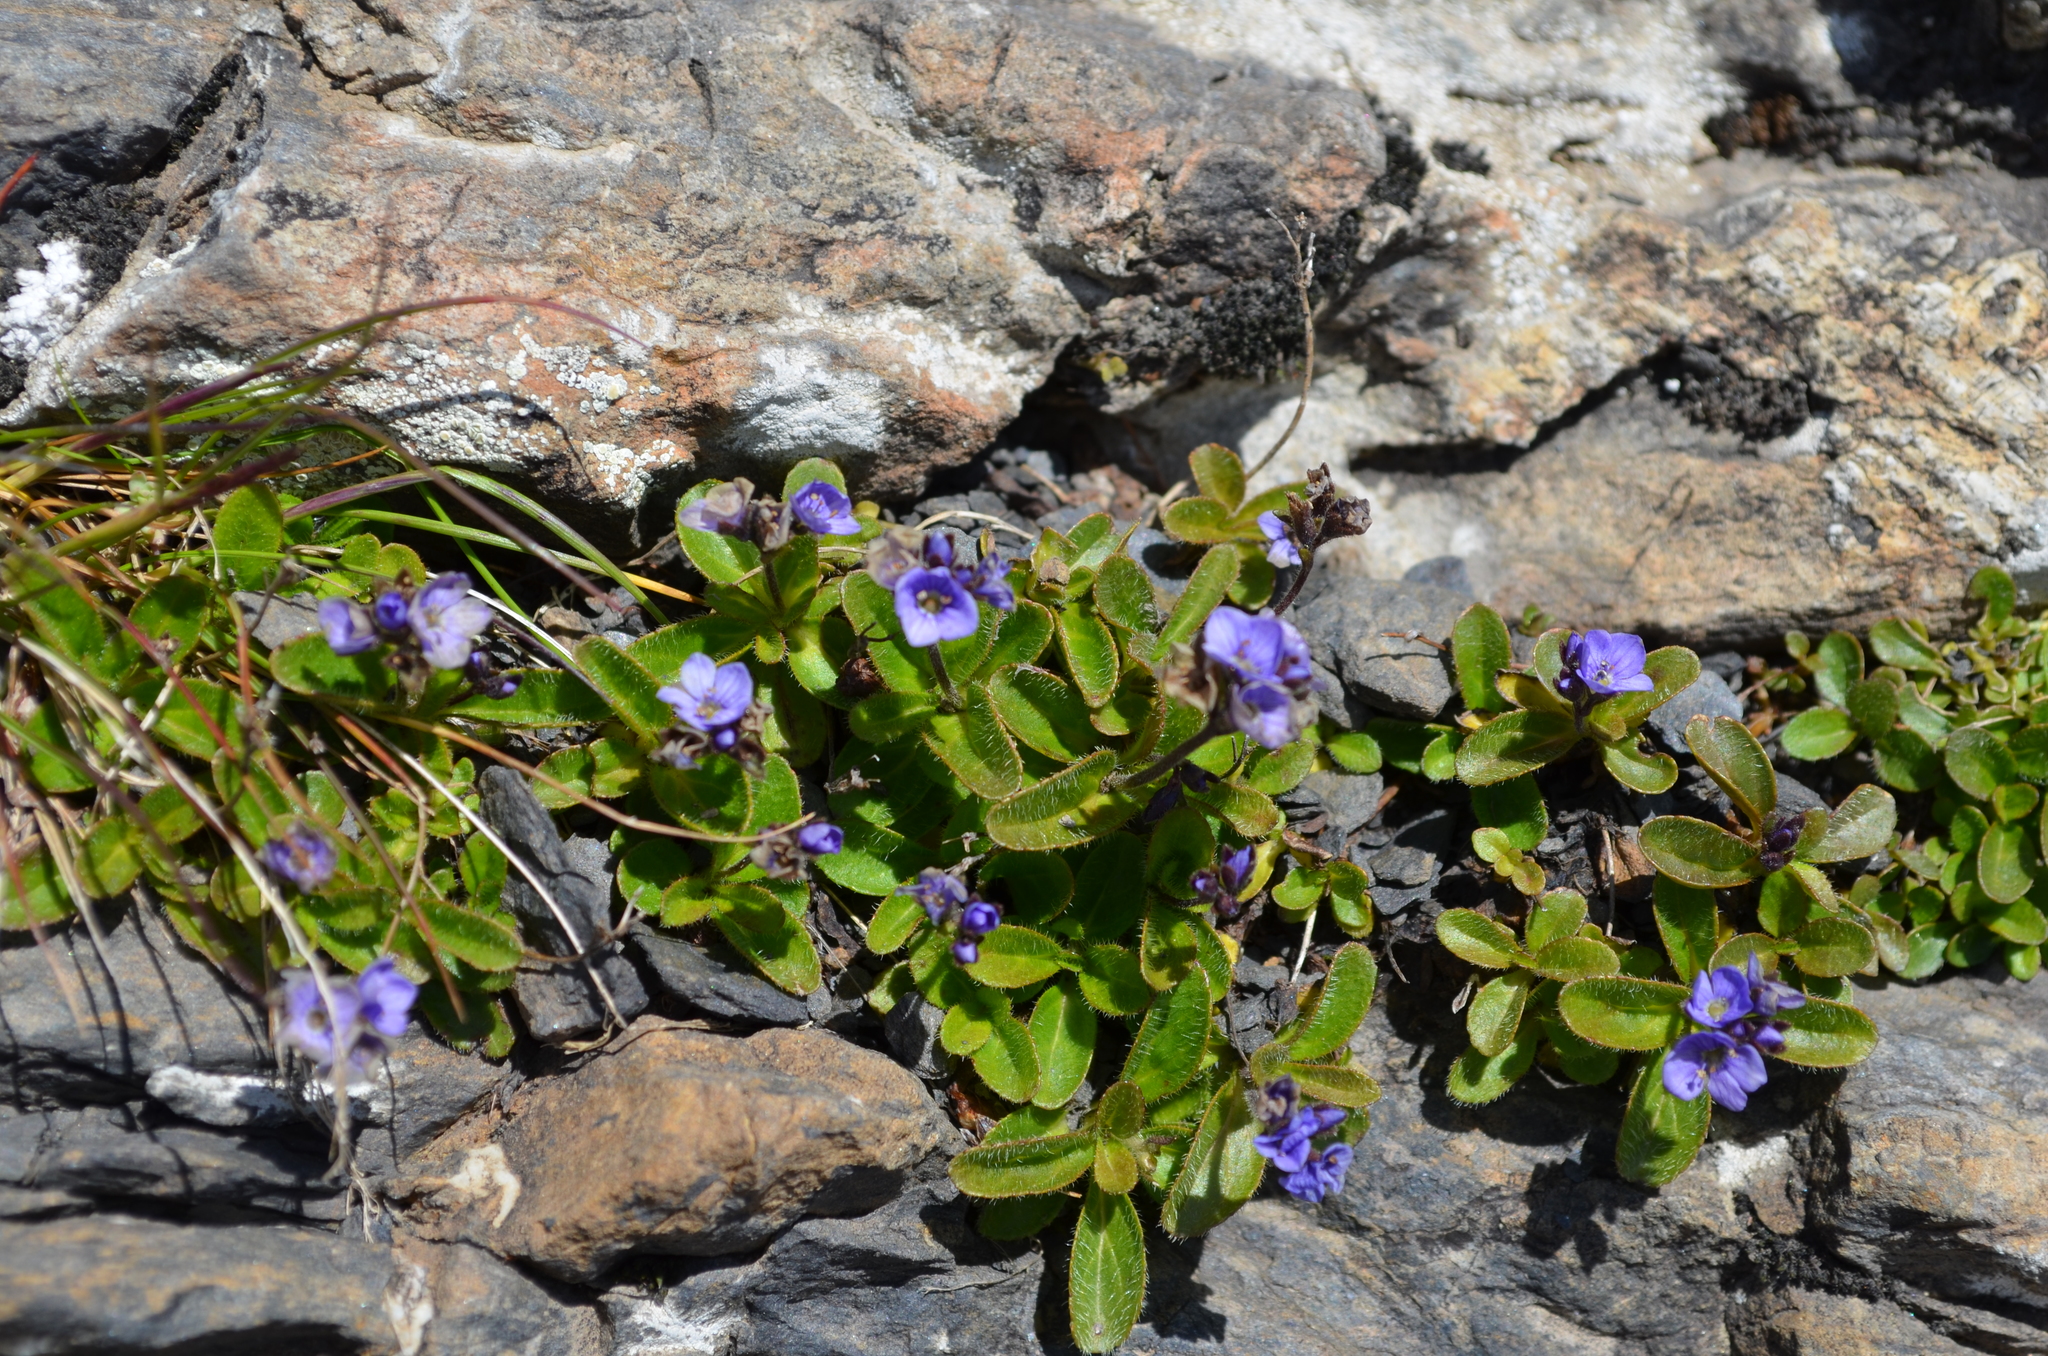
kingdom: Plantae
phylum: Tracheophyta
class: Magnoliopsida
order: Lamiales
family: Plantaginaceae
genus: Veronica
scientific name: Veronica aphylla
